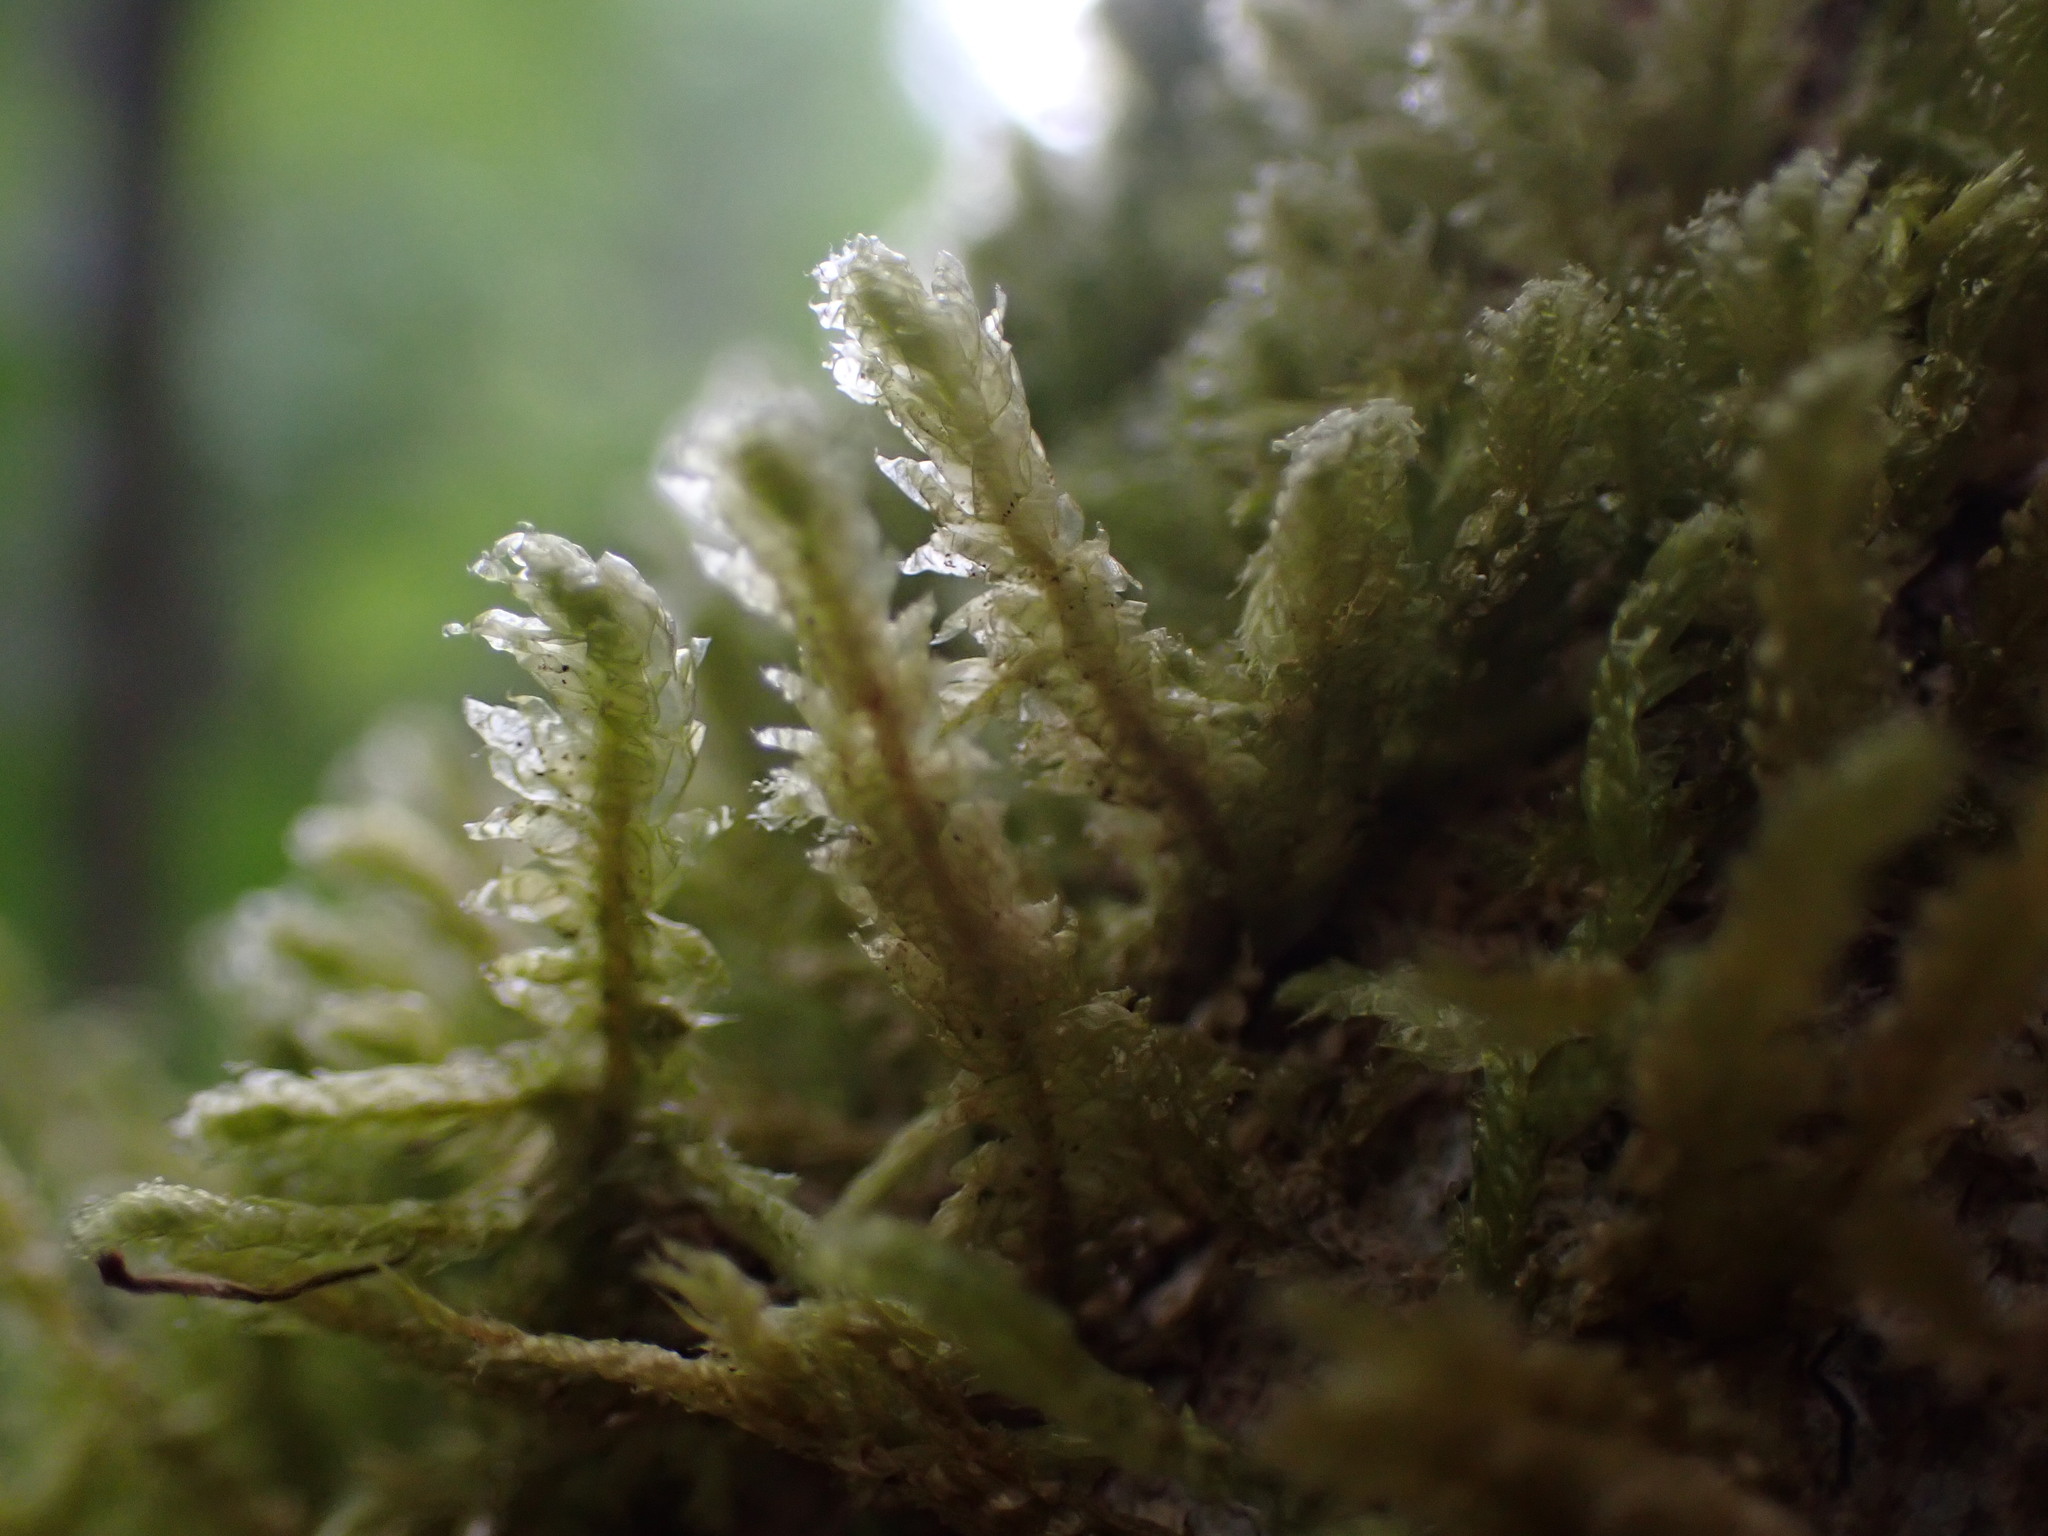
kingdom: Plantae
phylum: Bryophyta
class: Bryopsida
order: Hypnales
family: Neckeraceae
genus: Neckera
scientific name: Neckera douglasii
